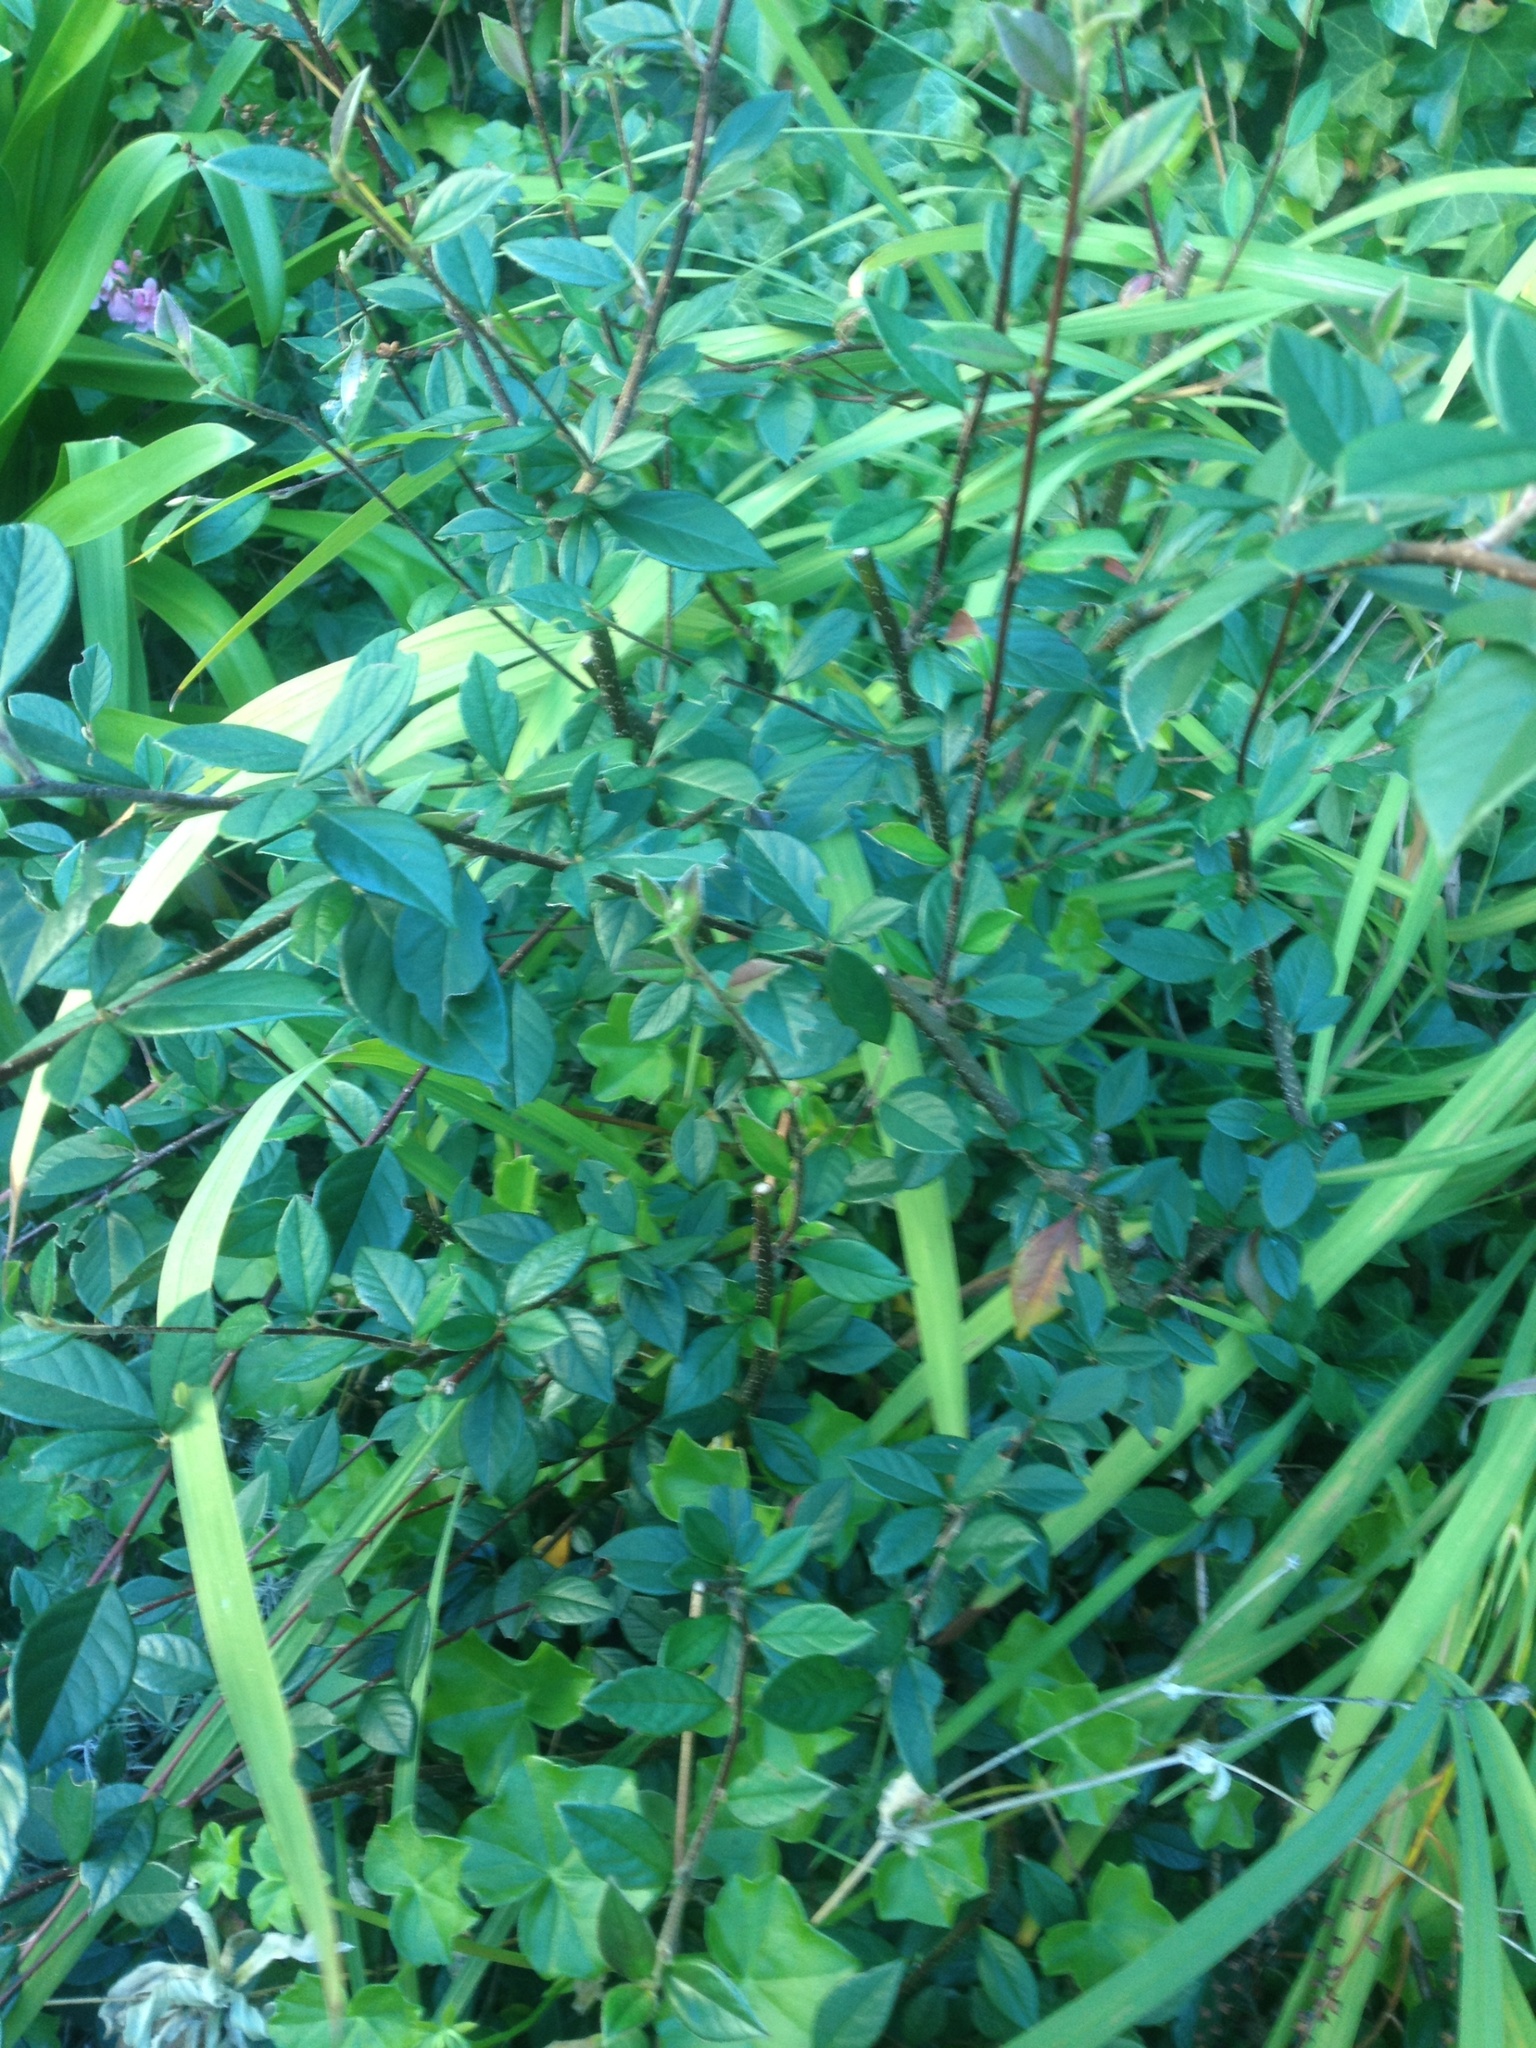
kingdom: Plantae
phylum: Tracheophyta
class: Magnoliopsida
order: Rosales
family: Rosaceae
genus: Cotoneaster
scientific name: Cotoneaster coriaceus
